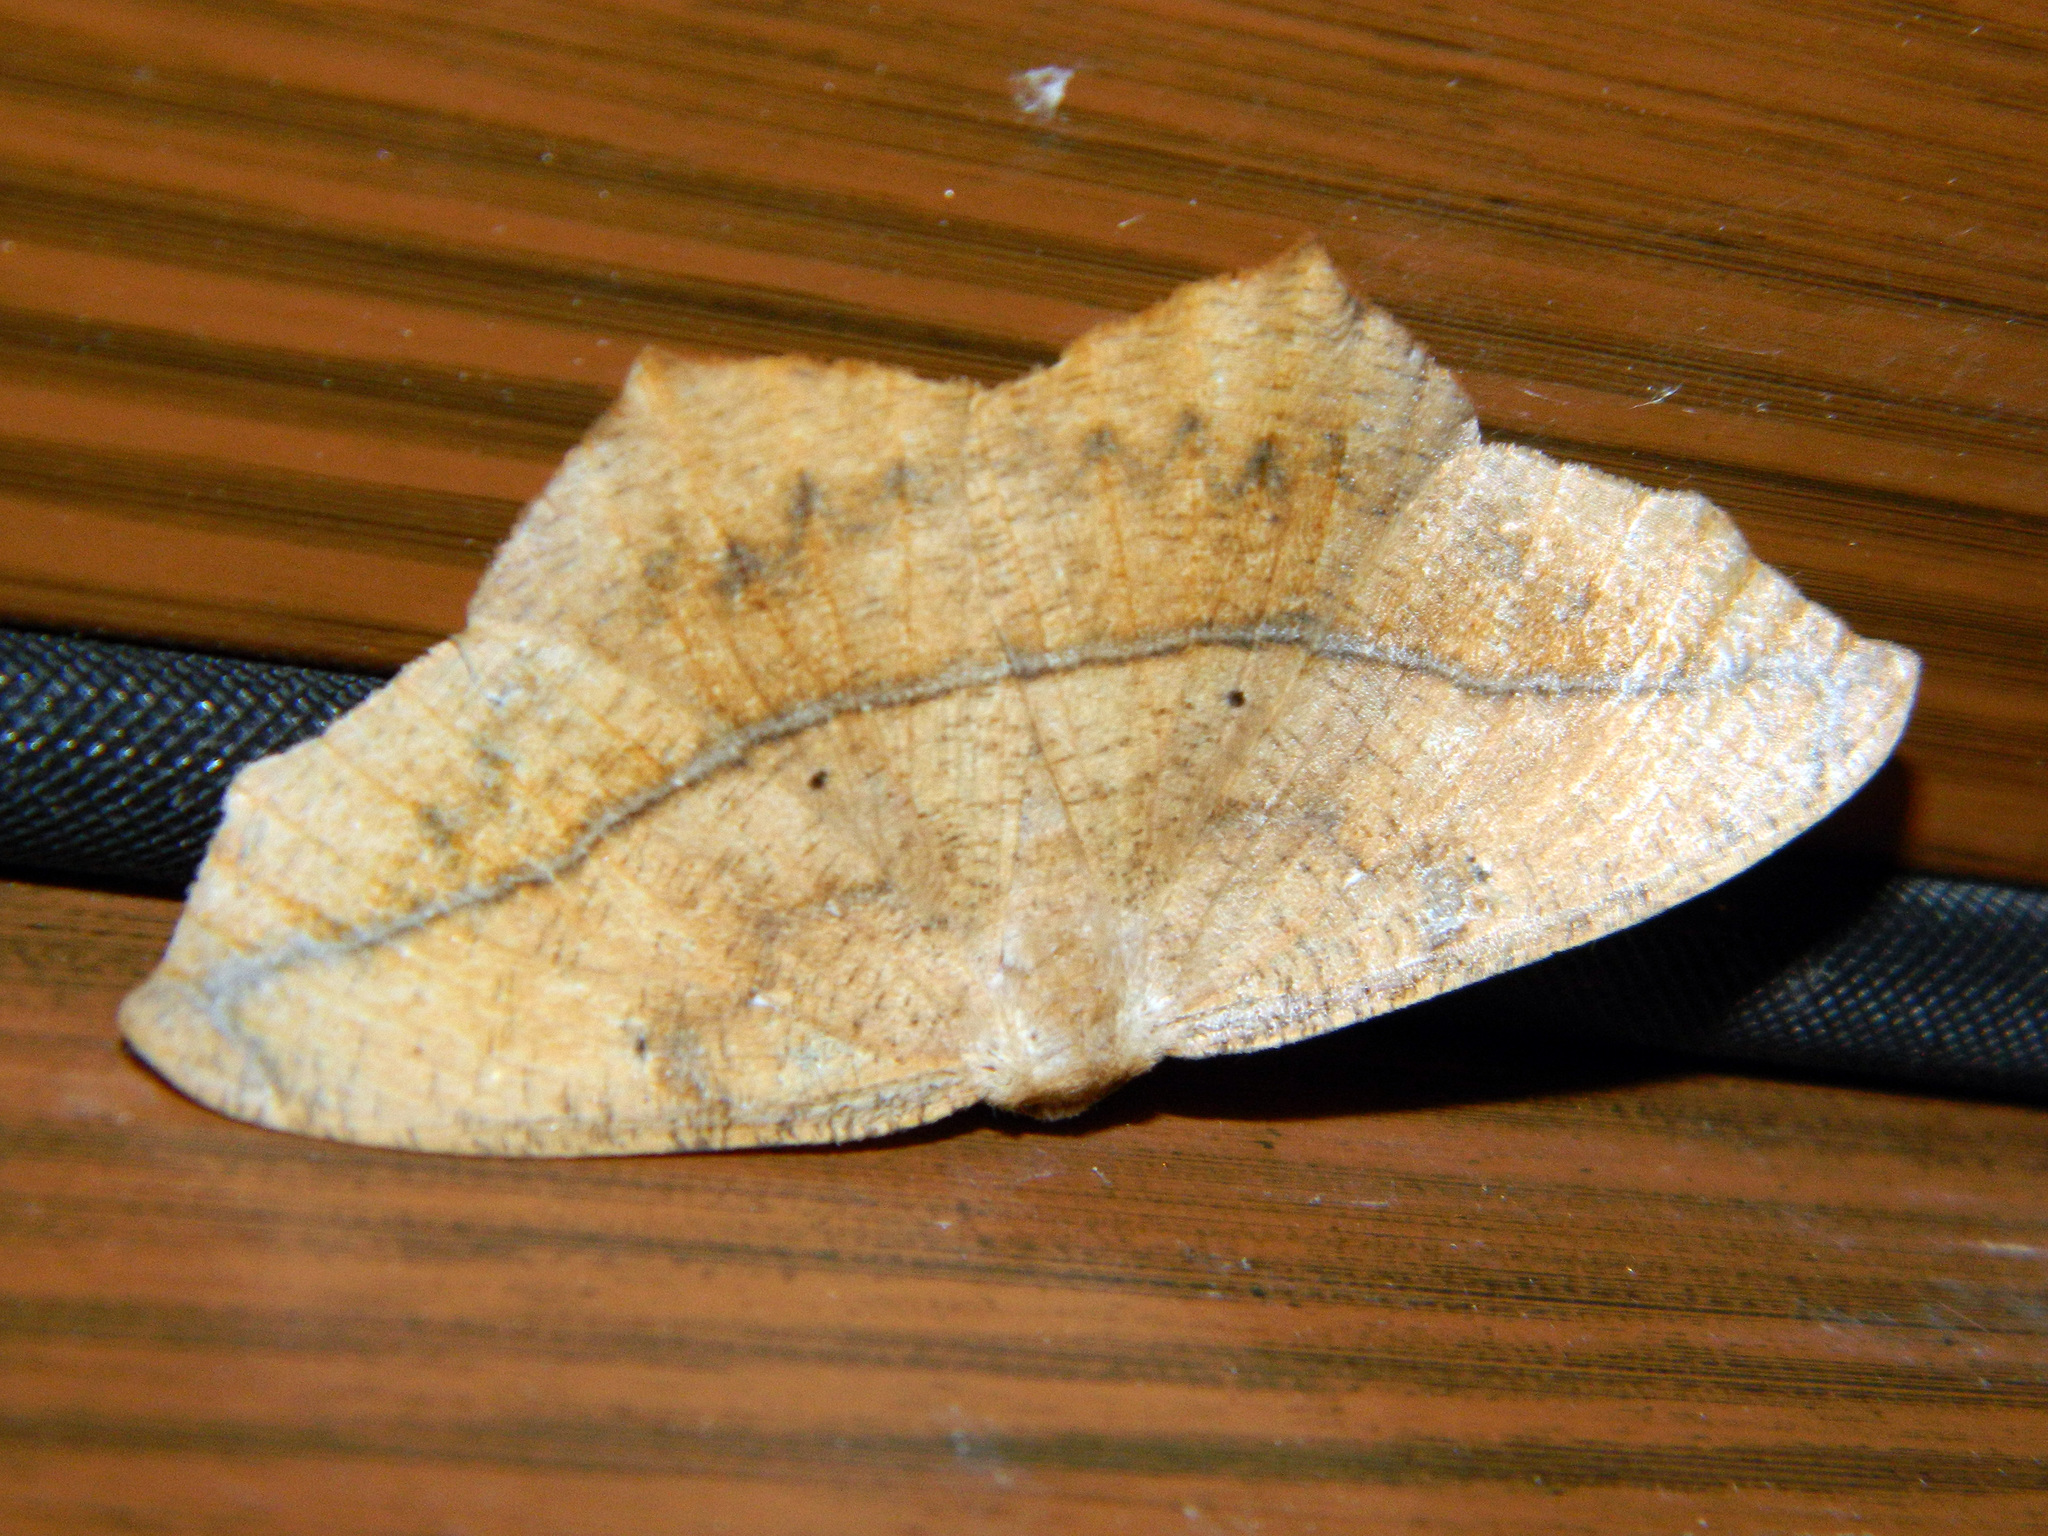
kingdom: Animalia
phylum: Arthropoda
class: Insecta
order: Lepidoptera
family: Geometridae
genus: Prochoerodes
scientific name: Prochoerodes lineola
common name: Large maple spanworm
